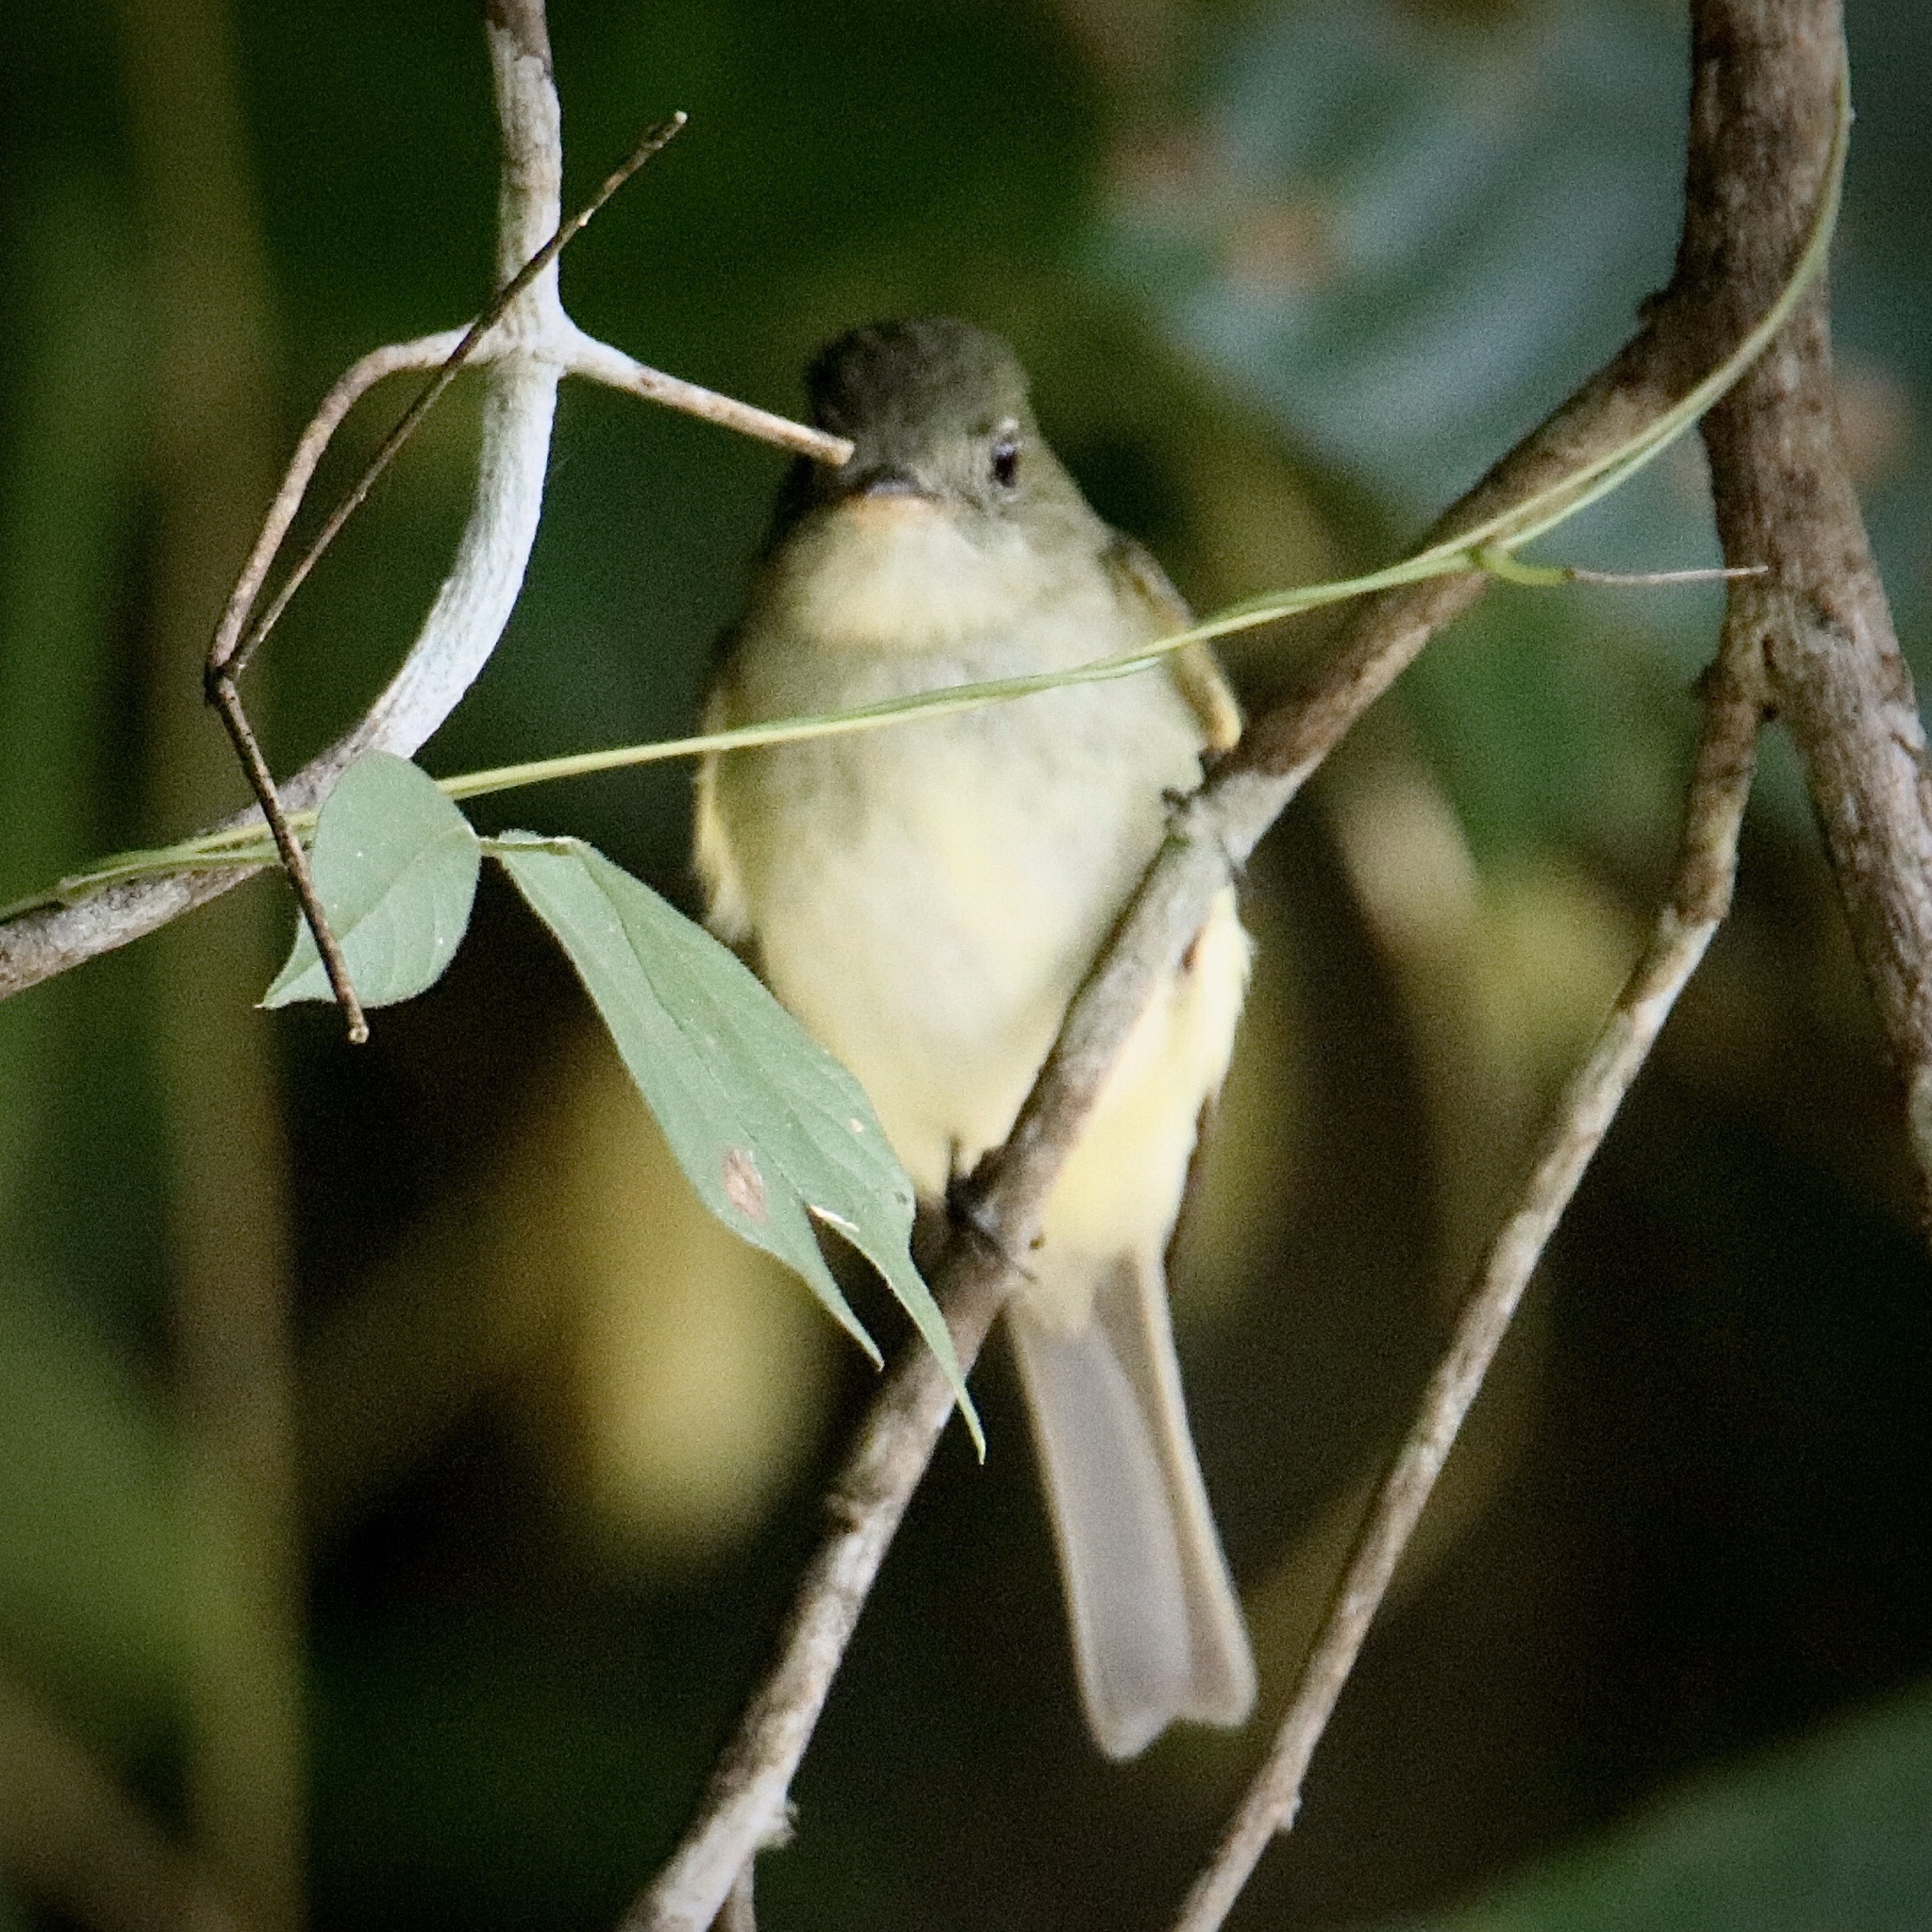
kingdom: Animalia
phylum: Chordata
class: Aves
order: Passeriformes
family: Tyrannidae
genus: Empidonax
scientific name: Empidonax virescens
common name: Acadian flycatcher
